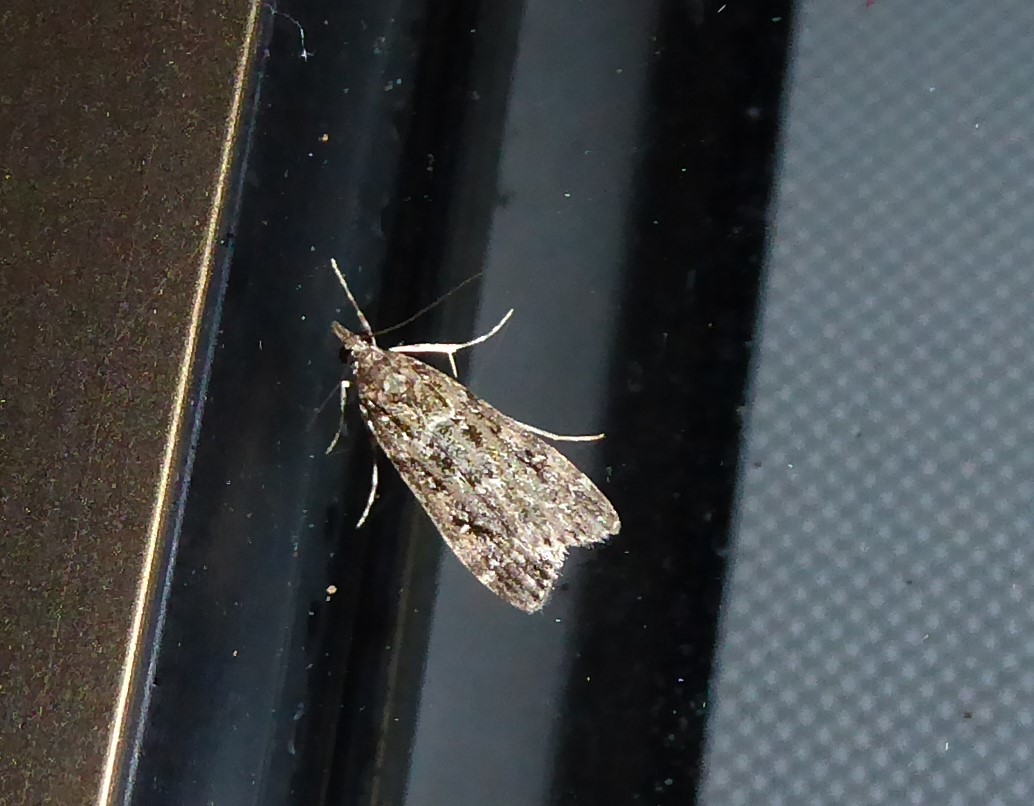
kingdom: Animalia
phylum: Arthropoda
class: Insecta
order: Lepidoptera
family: Crambidae
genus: Eudonia
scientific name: Eudonia philerga
